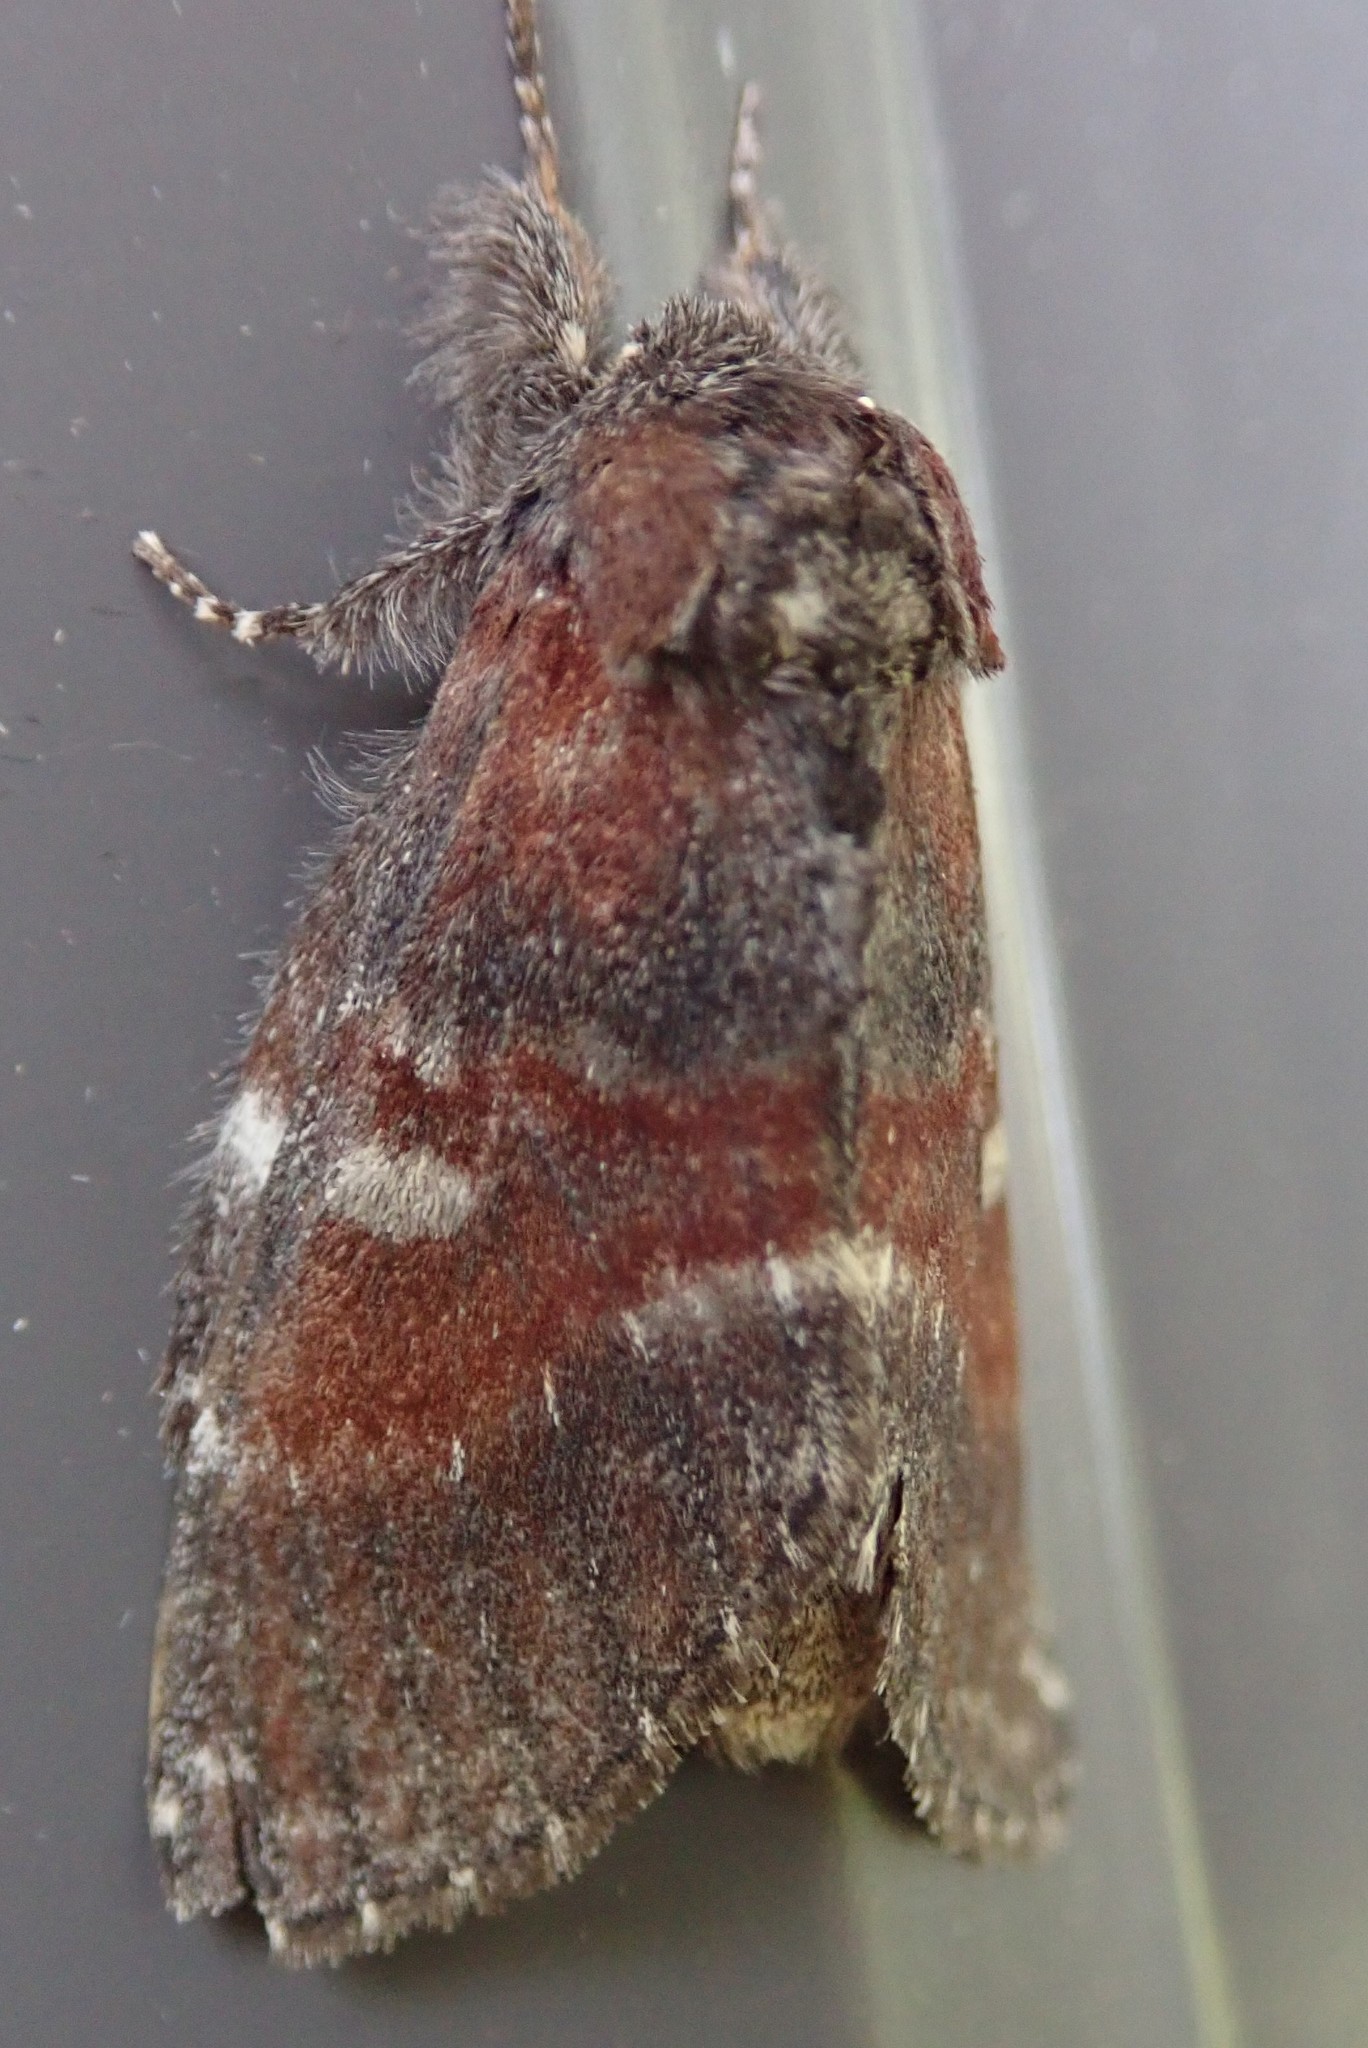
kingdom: Animalia
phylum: Arthropoda
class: Insecta
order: Lepidoptera
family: Notodontidae
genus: Peridea
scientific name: Peridea ferruginea
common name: Chocolate prominent
